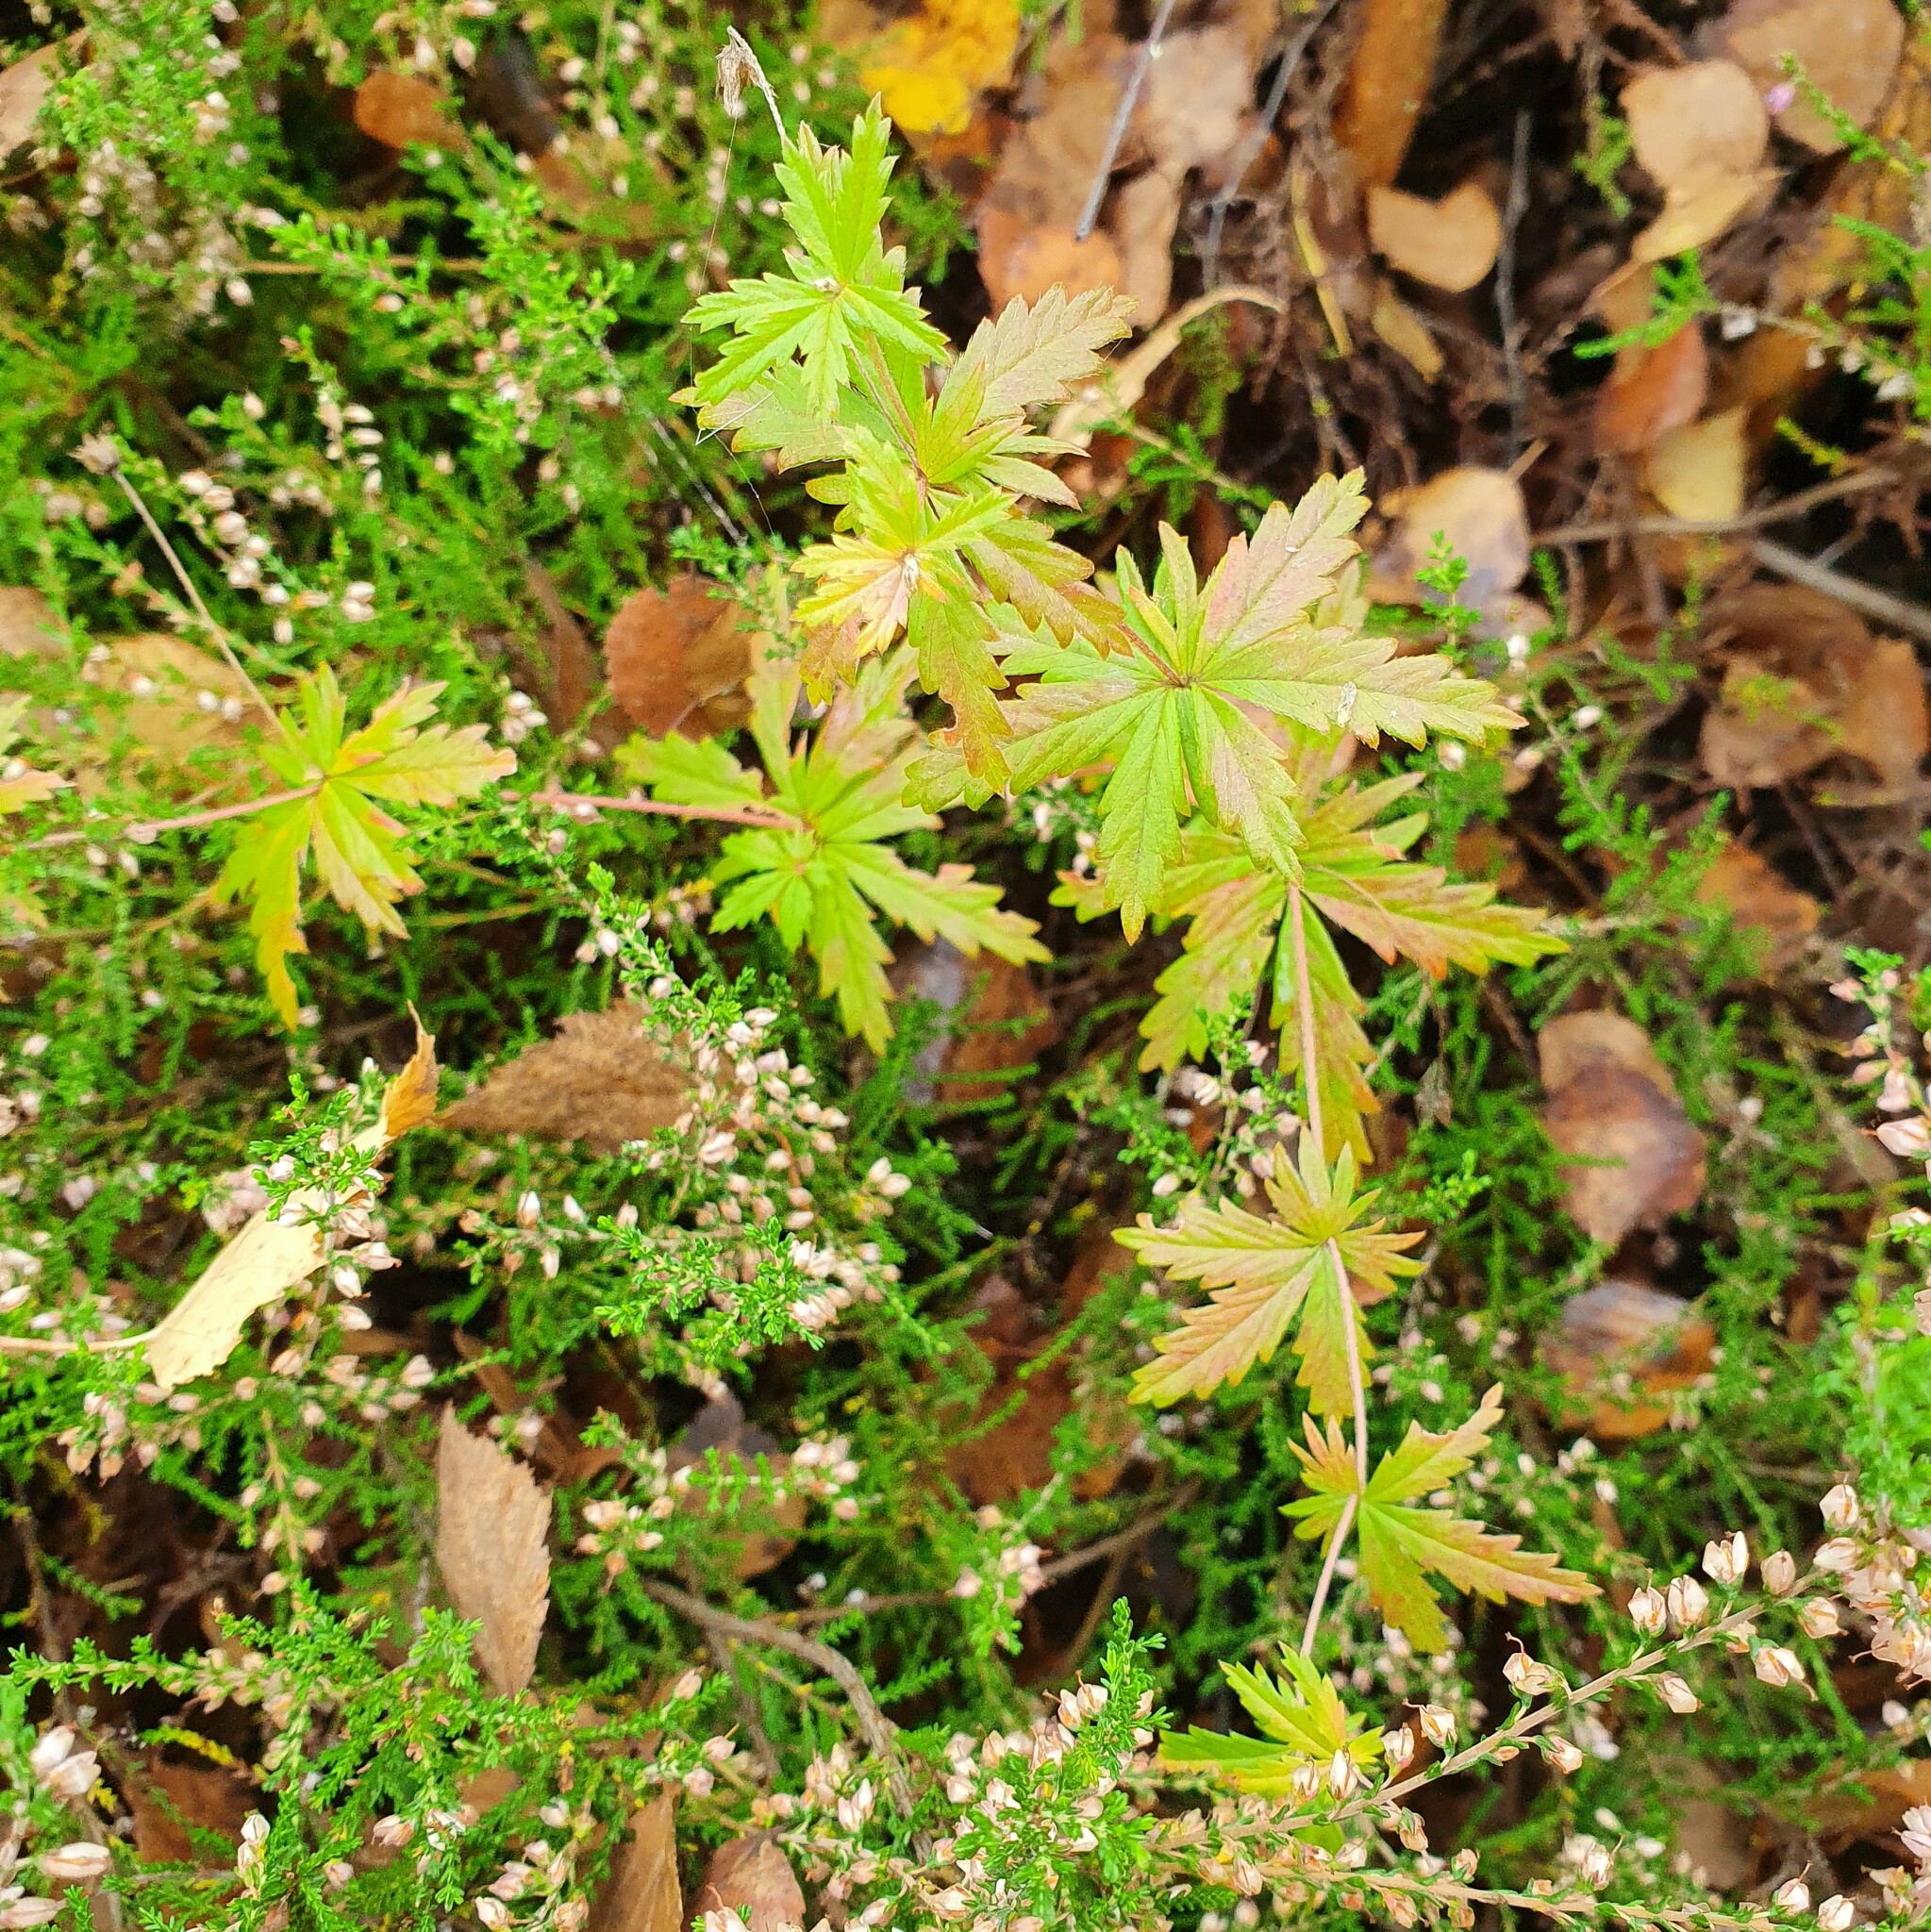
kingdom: Plantae
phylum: Tracheophyta
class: Magnoliopsida
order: Rosales
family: Rosaceae
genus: Potentilla
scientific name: Potentilla erecta
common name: Tormentil
